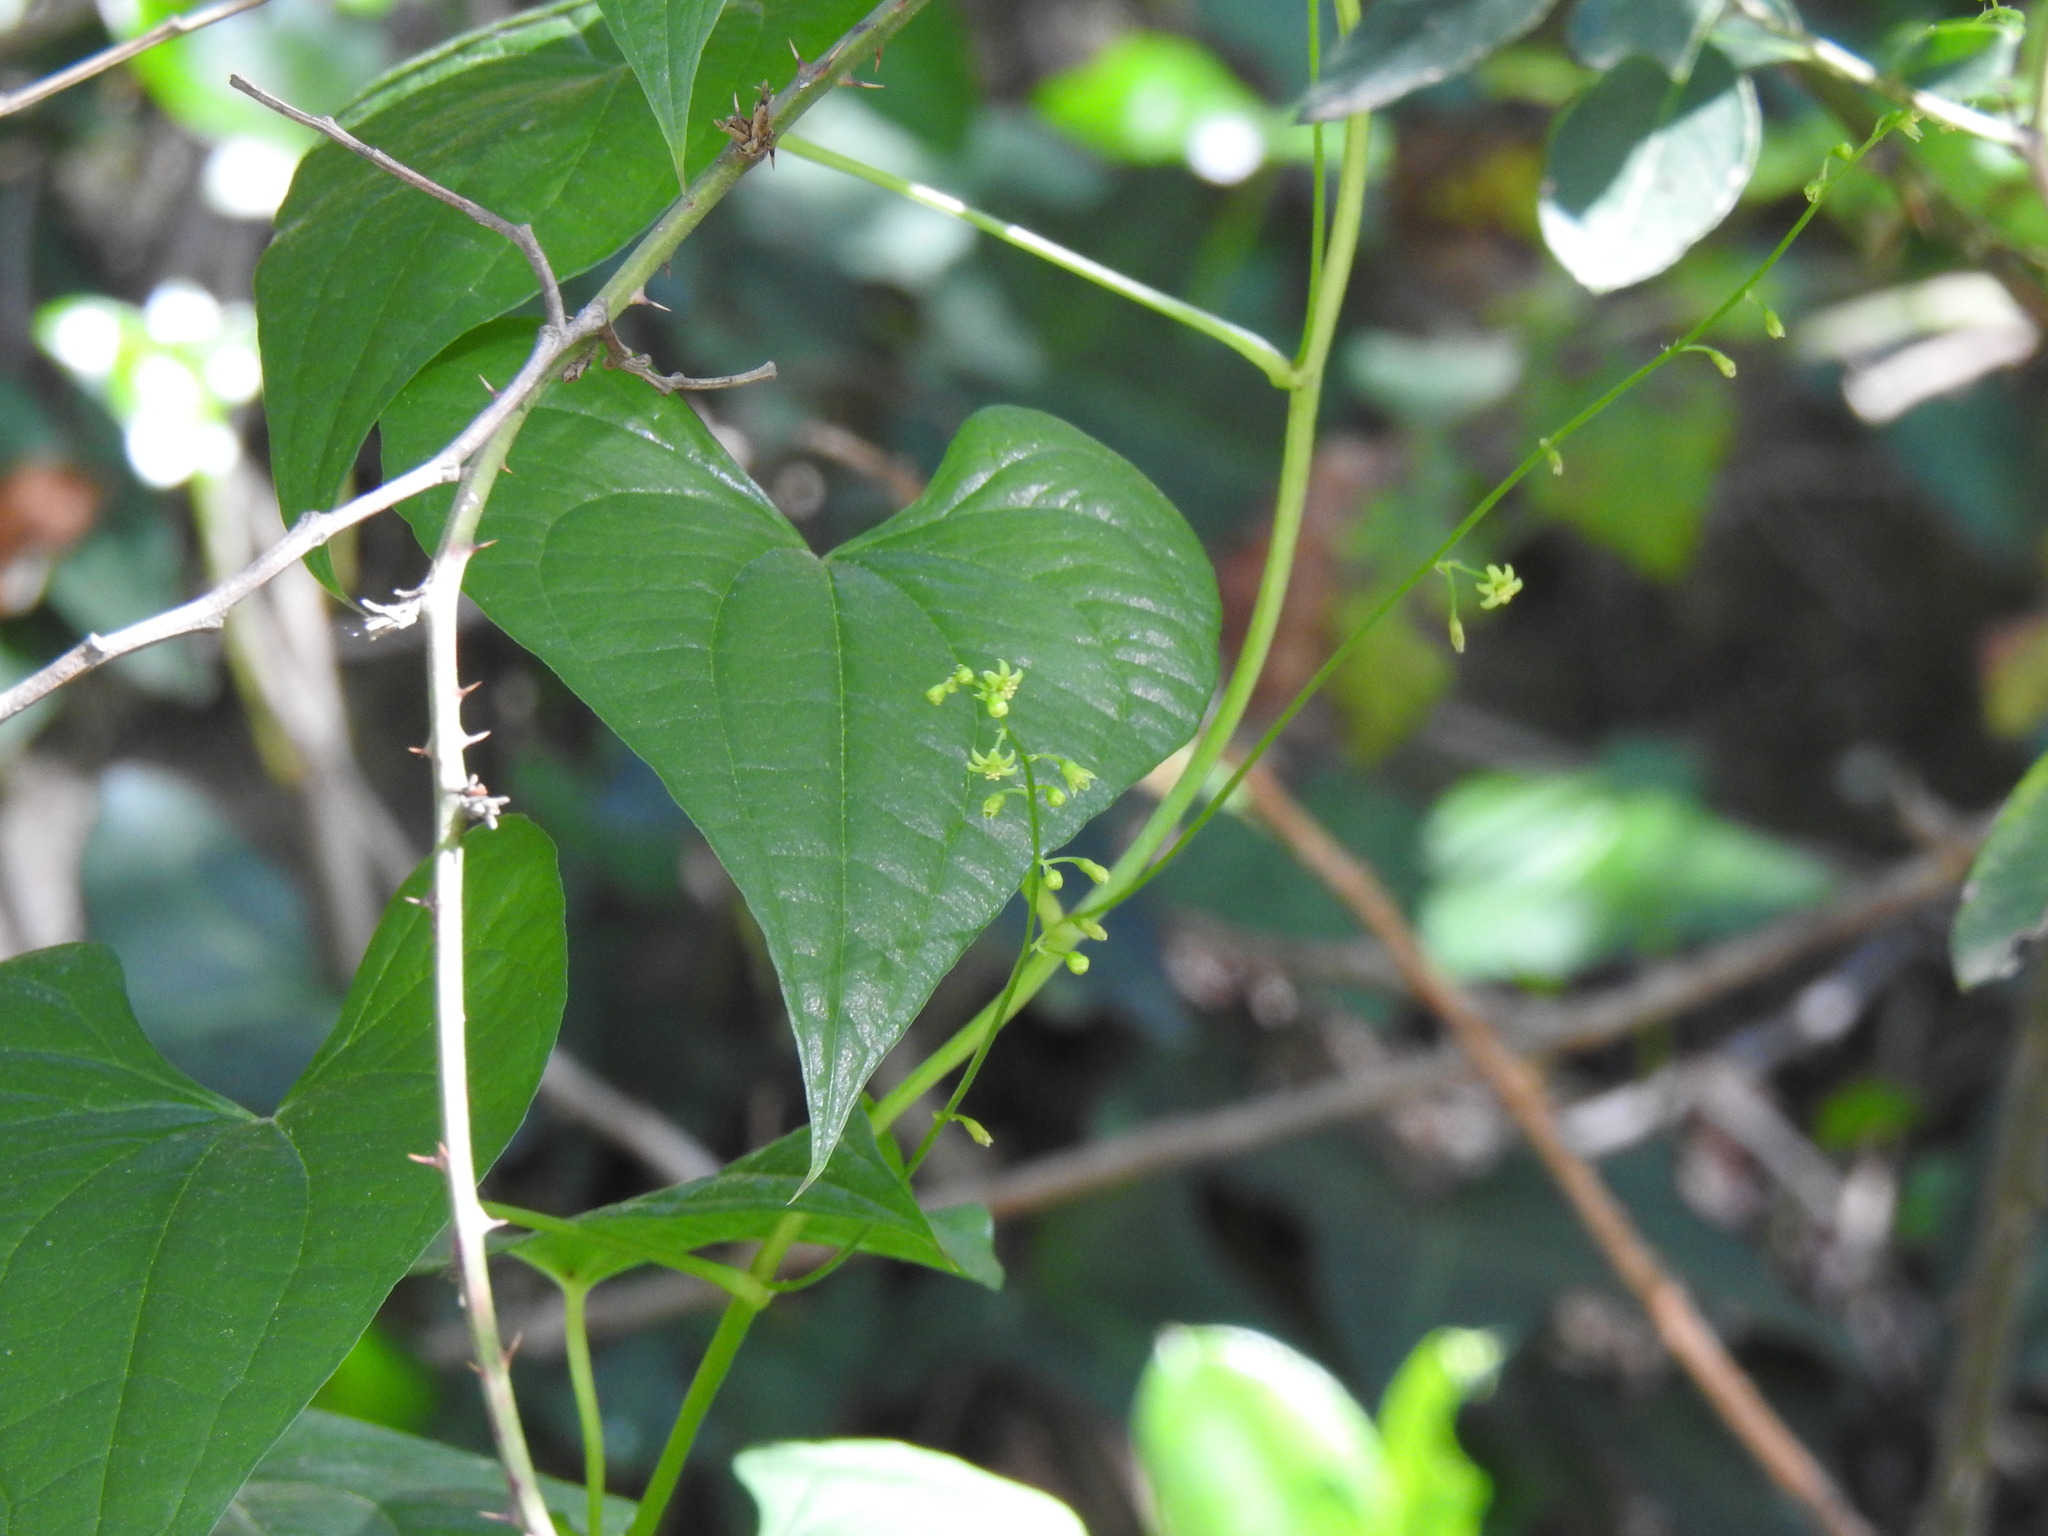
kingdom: Plantae
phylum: Tracheophyta
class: Liliopsida
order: Dioscoreales
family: Dioscoreaceae
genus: Dioscorea
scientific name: Dioscorea communis
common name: Black-bindweed
